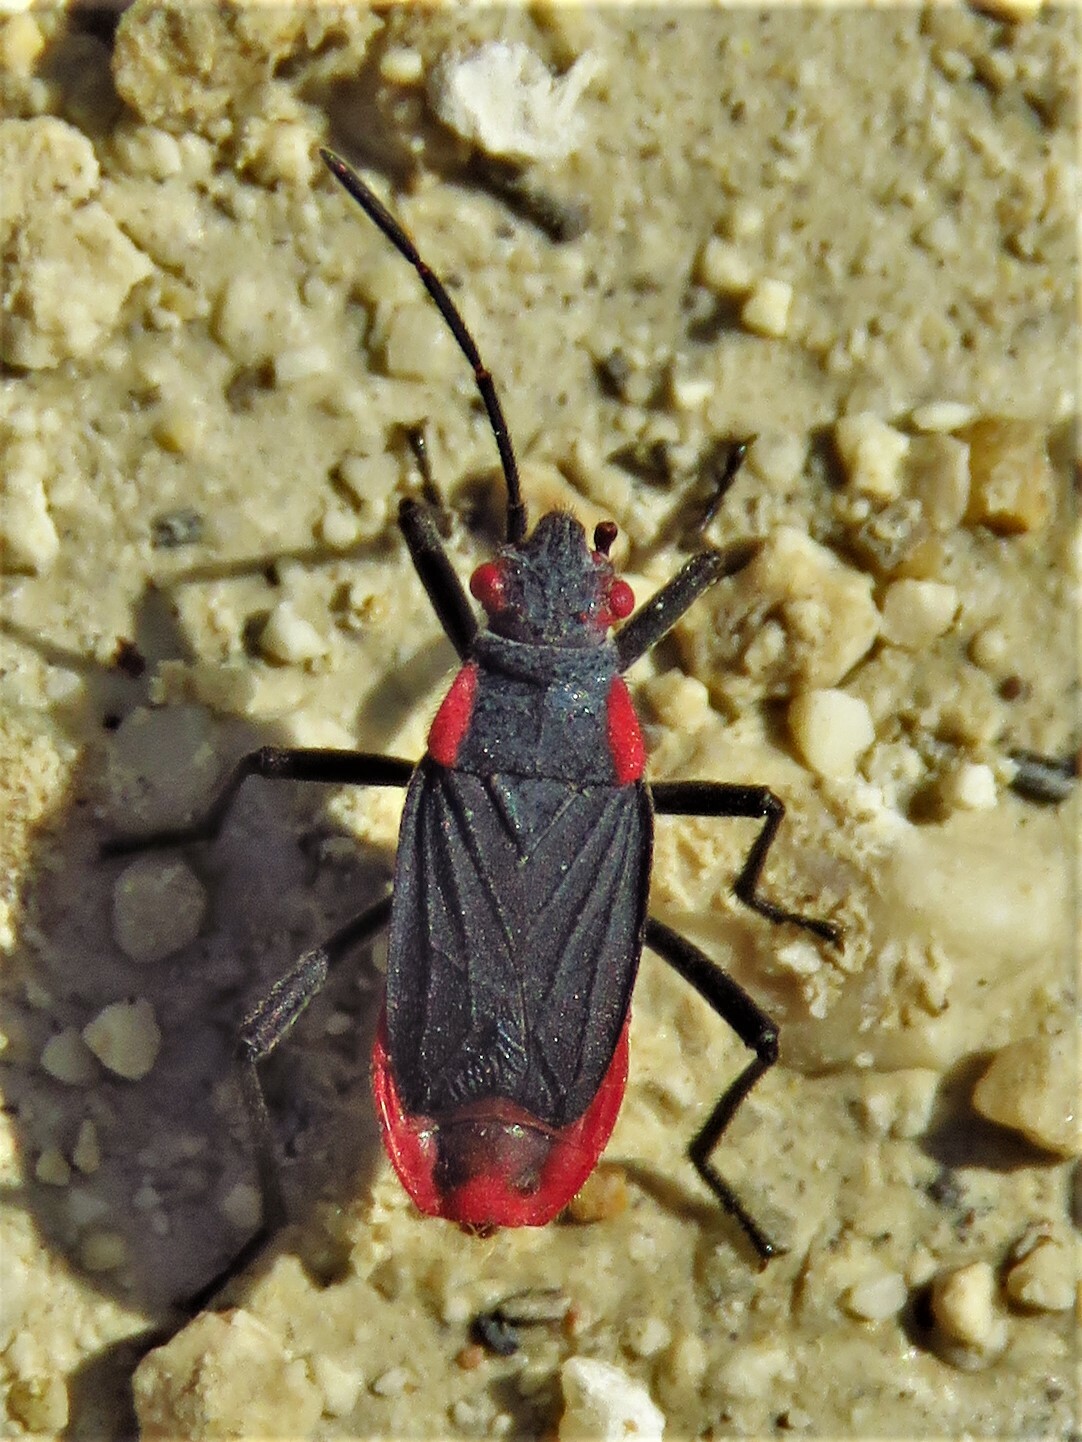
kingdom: Animalia
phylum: Arthropoda
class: Insecta
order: Hemiptera
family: Rhopalidae
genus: Jadera
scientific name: Jadera haematoloma
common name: Red-shouldered bug
